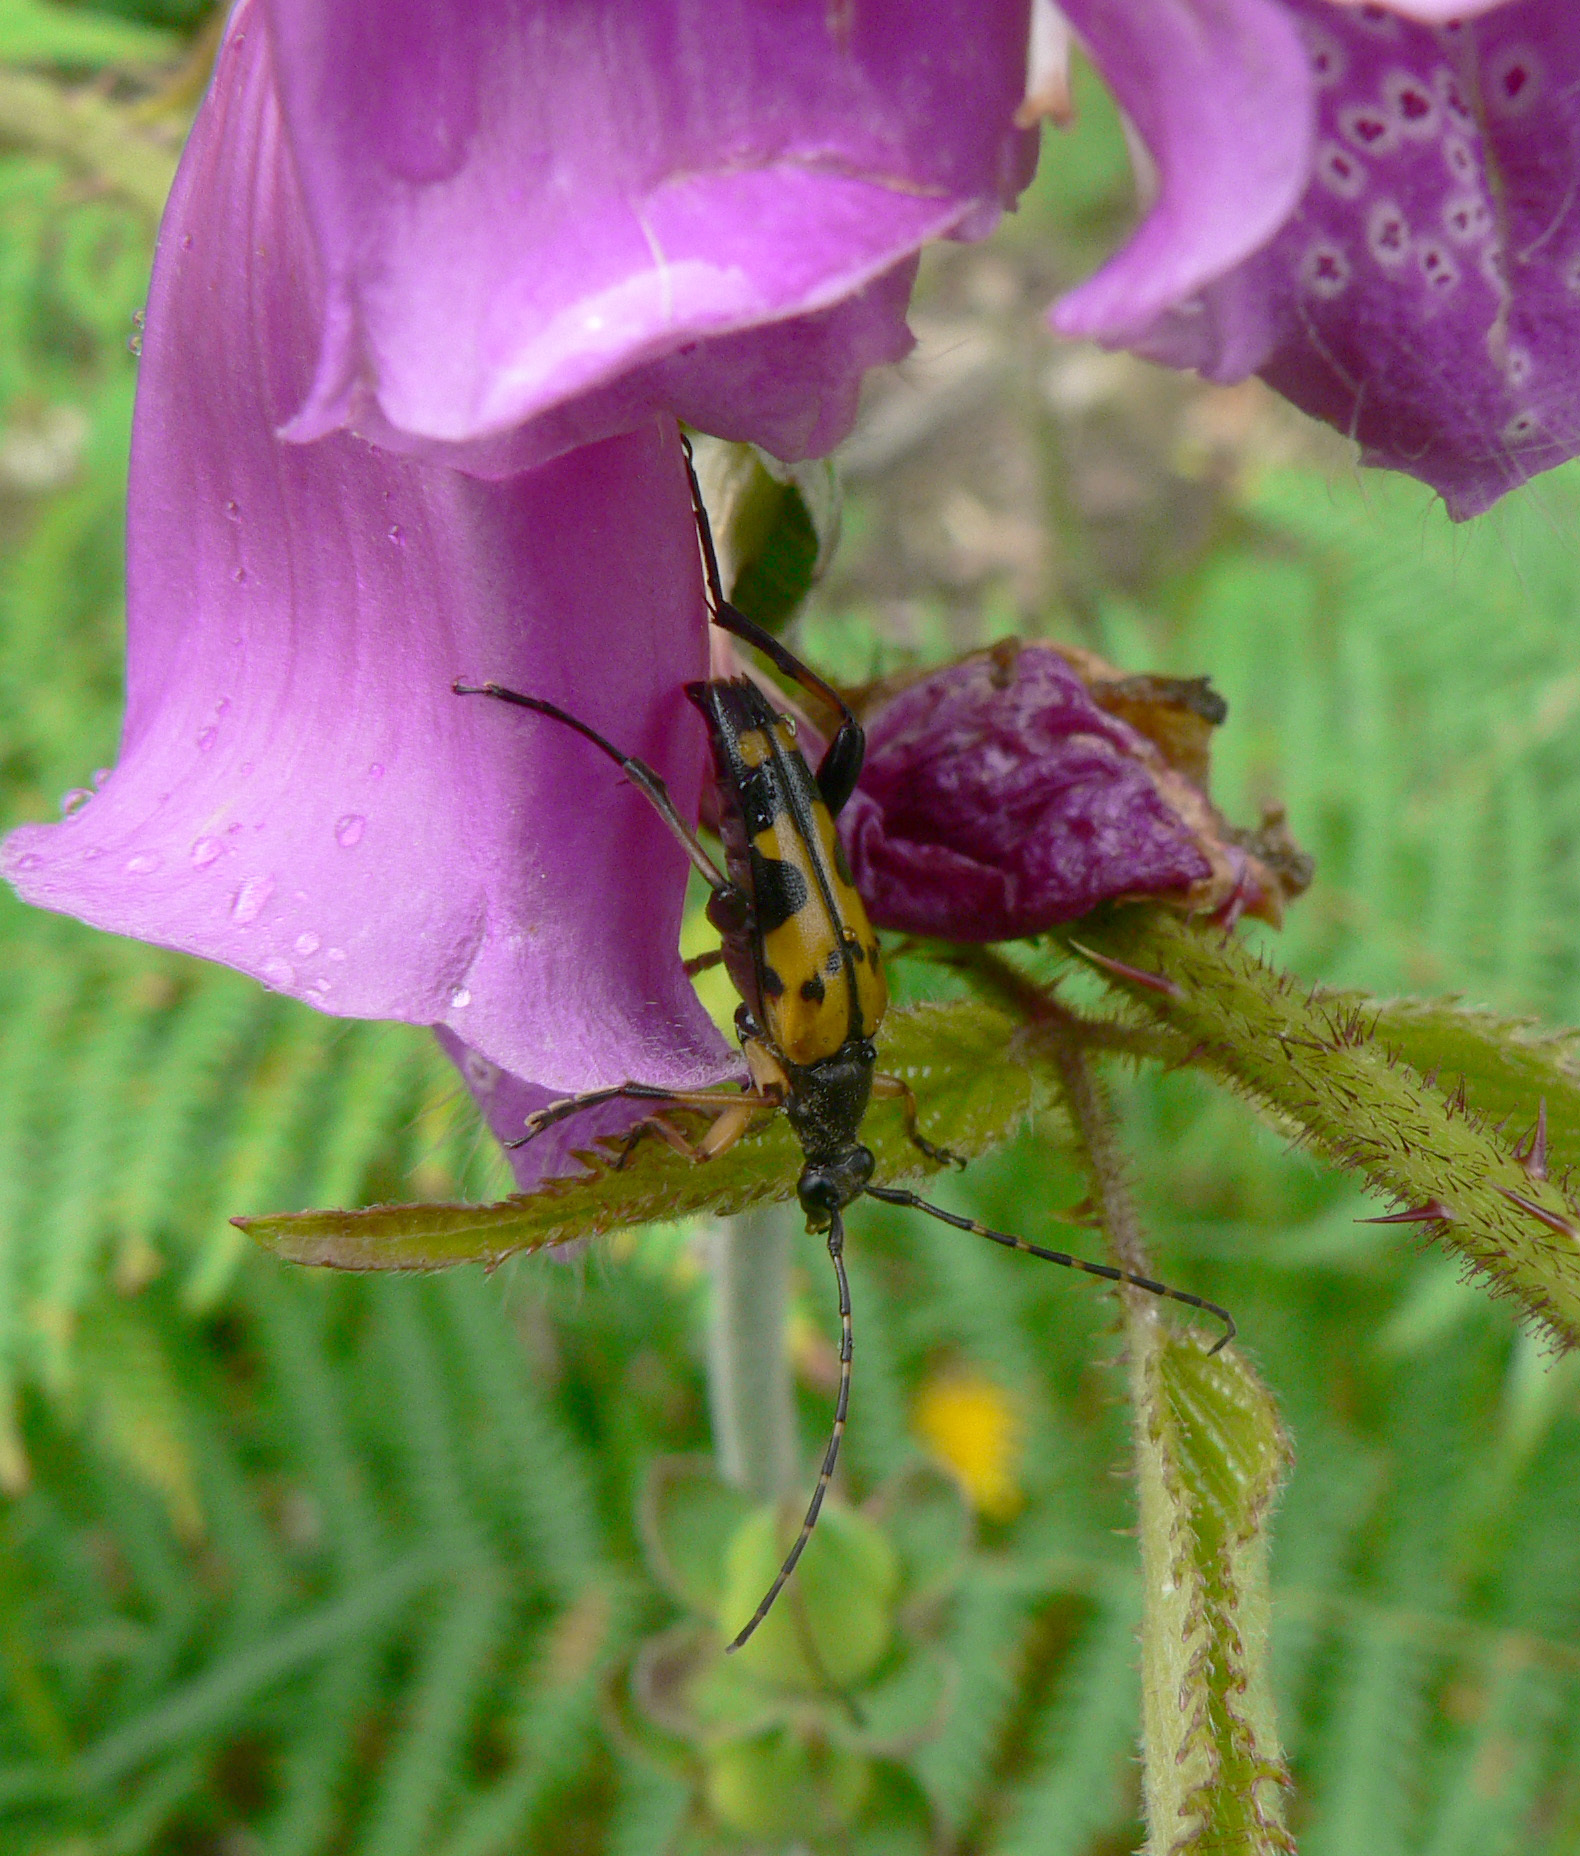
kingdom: Animalia
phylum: Arthropoda
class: Insecta
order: Coleoptera
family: Cerambycidae
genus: Rutpela
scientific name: Rutpela maculata
